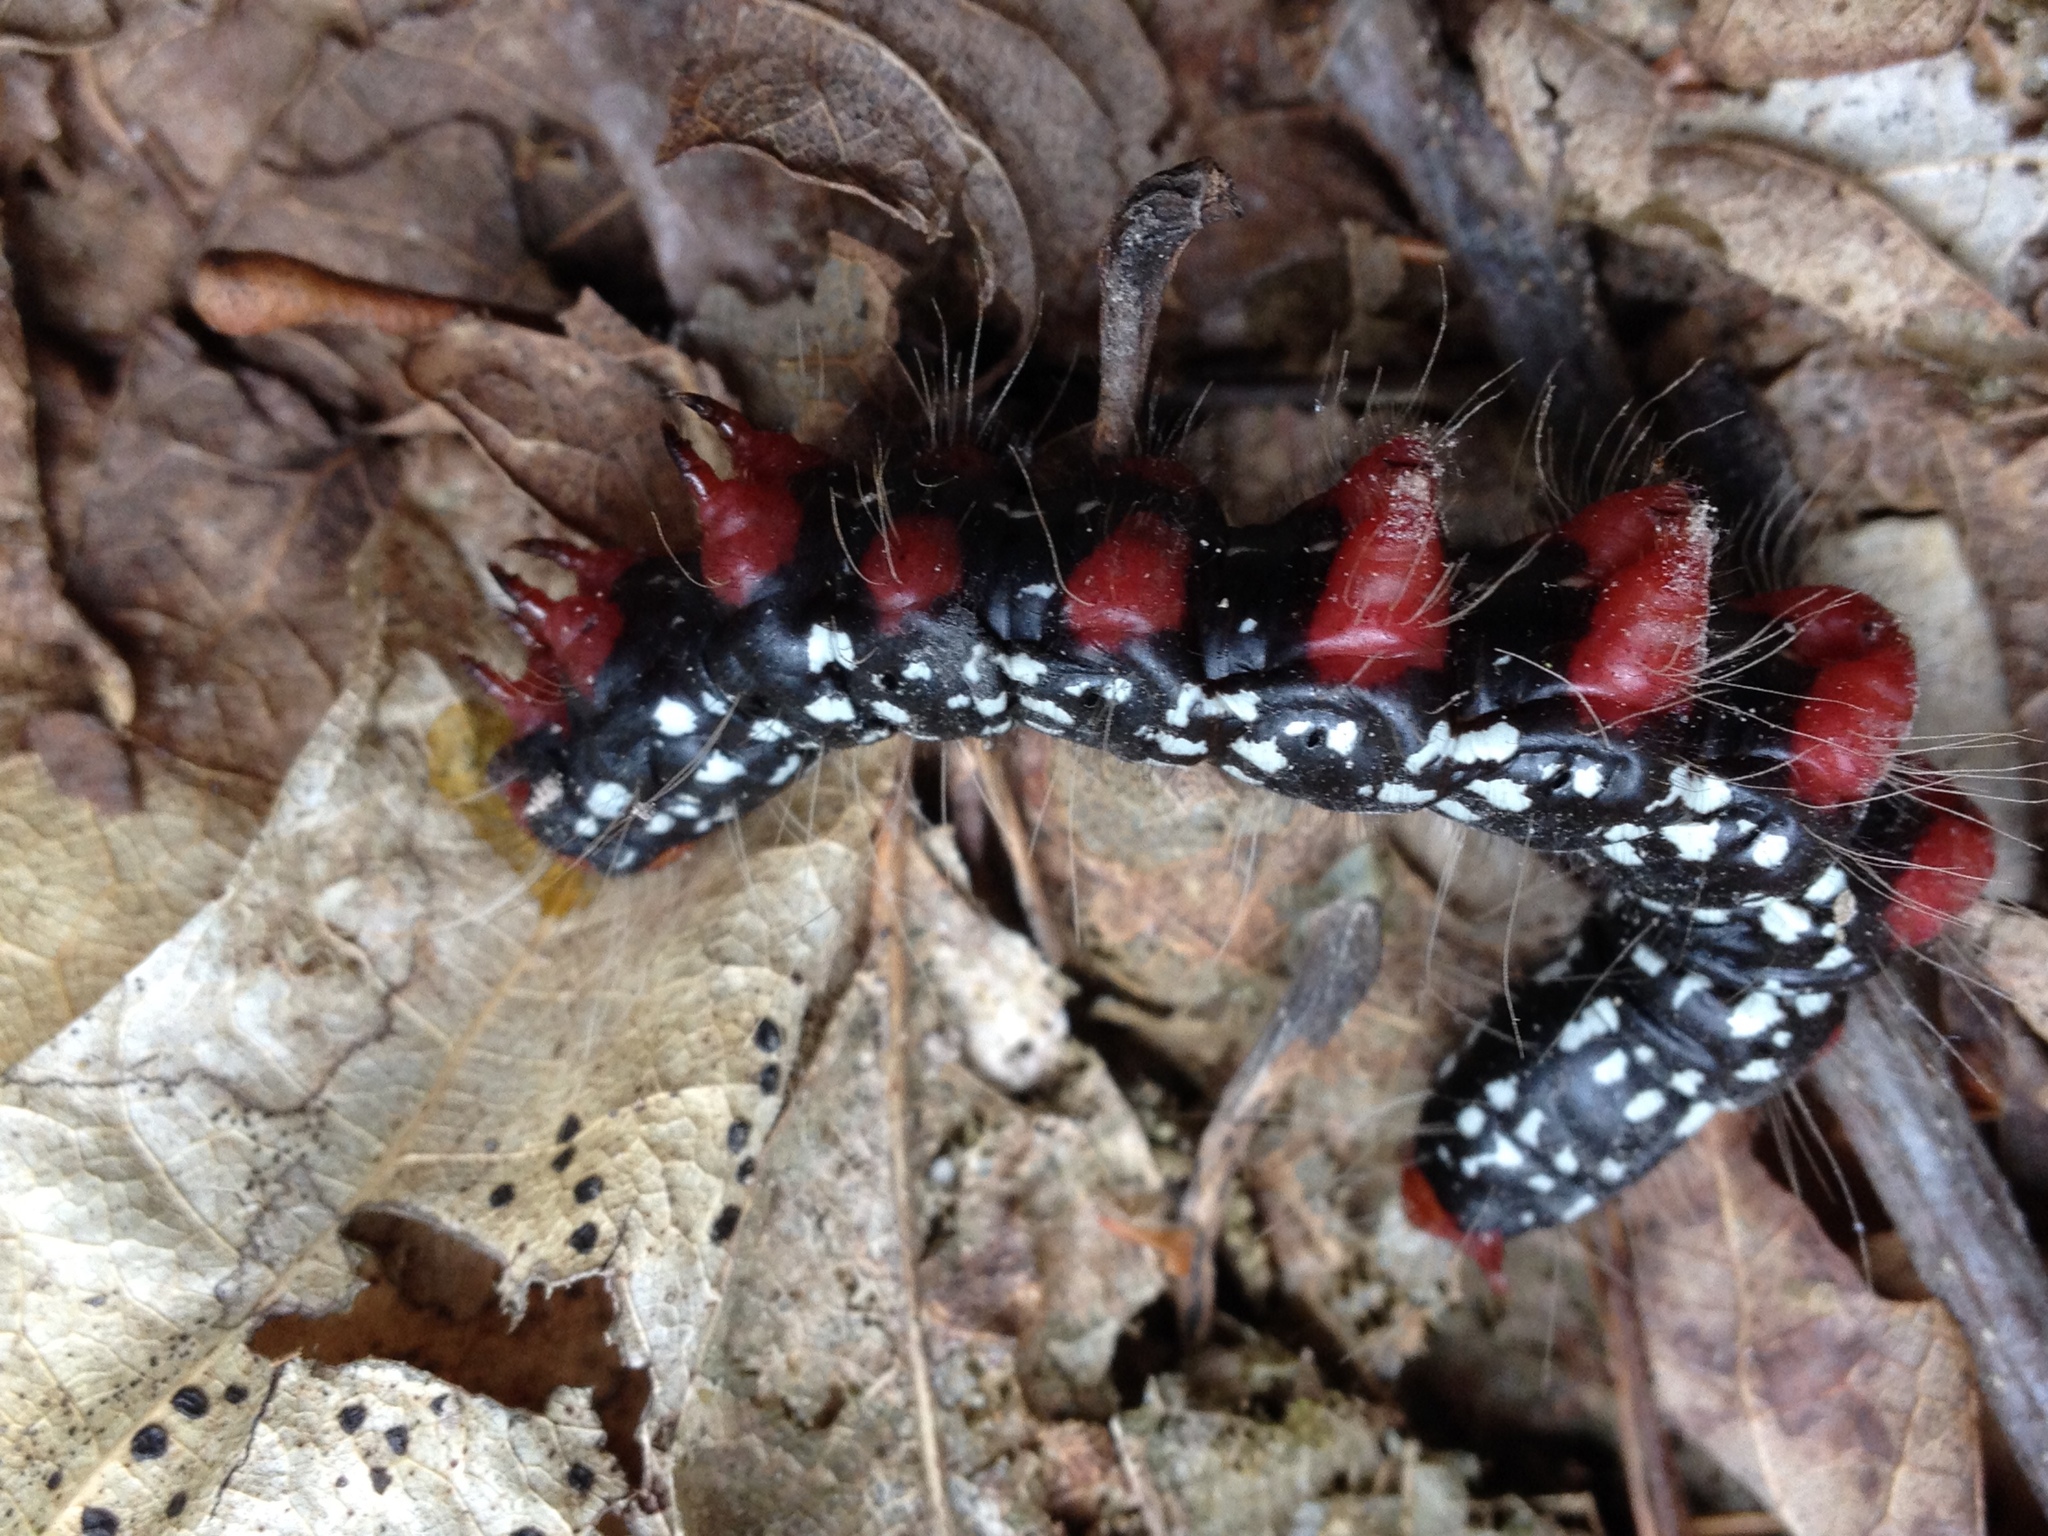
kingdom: Animalia
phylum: Arthropoda
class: Insecta
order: Lepidoptera
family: Notodontidae
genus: Datana
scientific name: Datana major
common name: Azalea caterpillar
